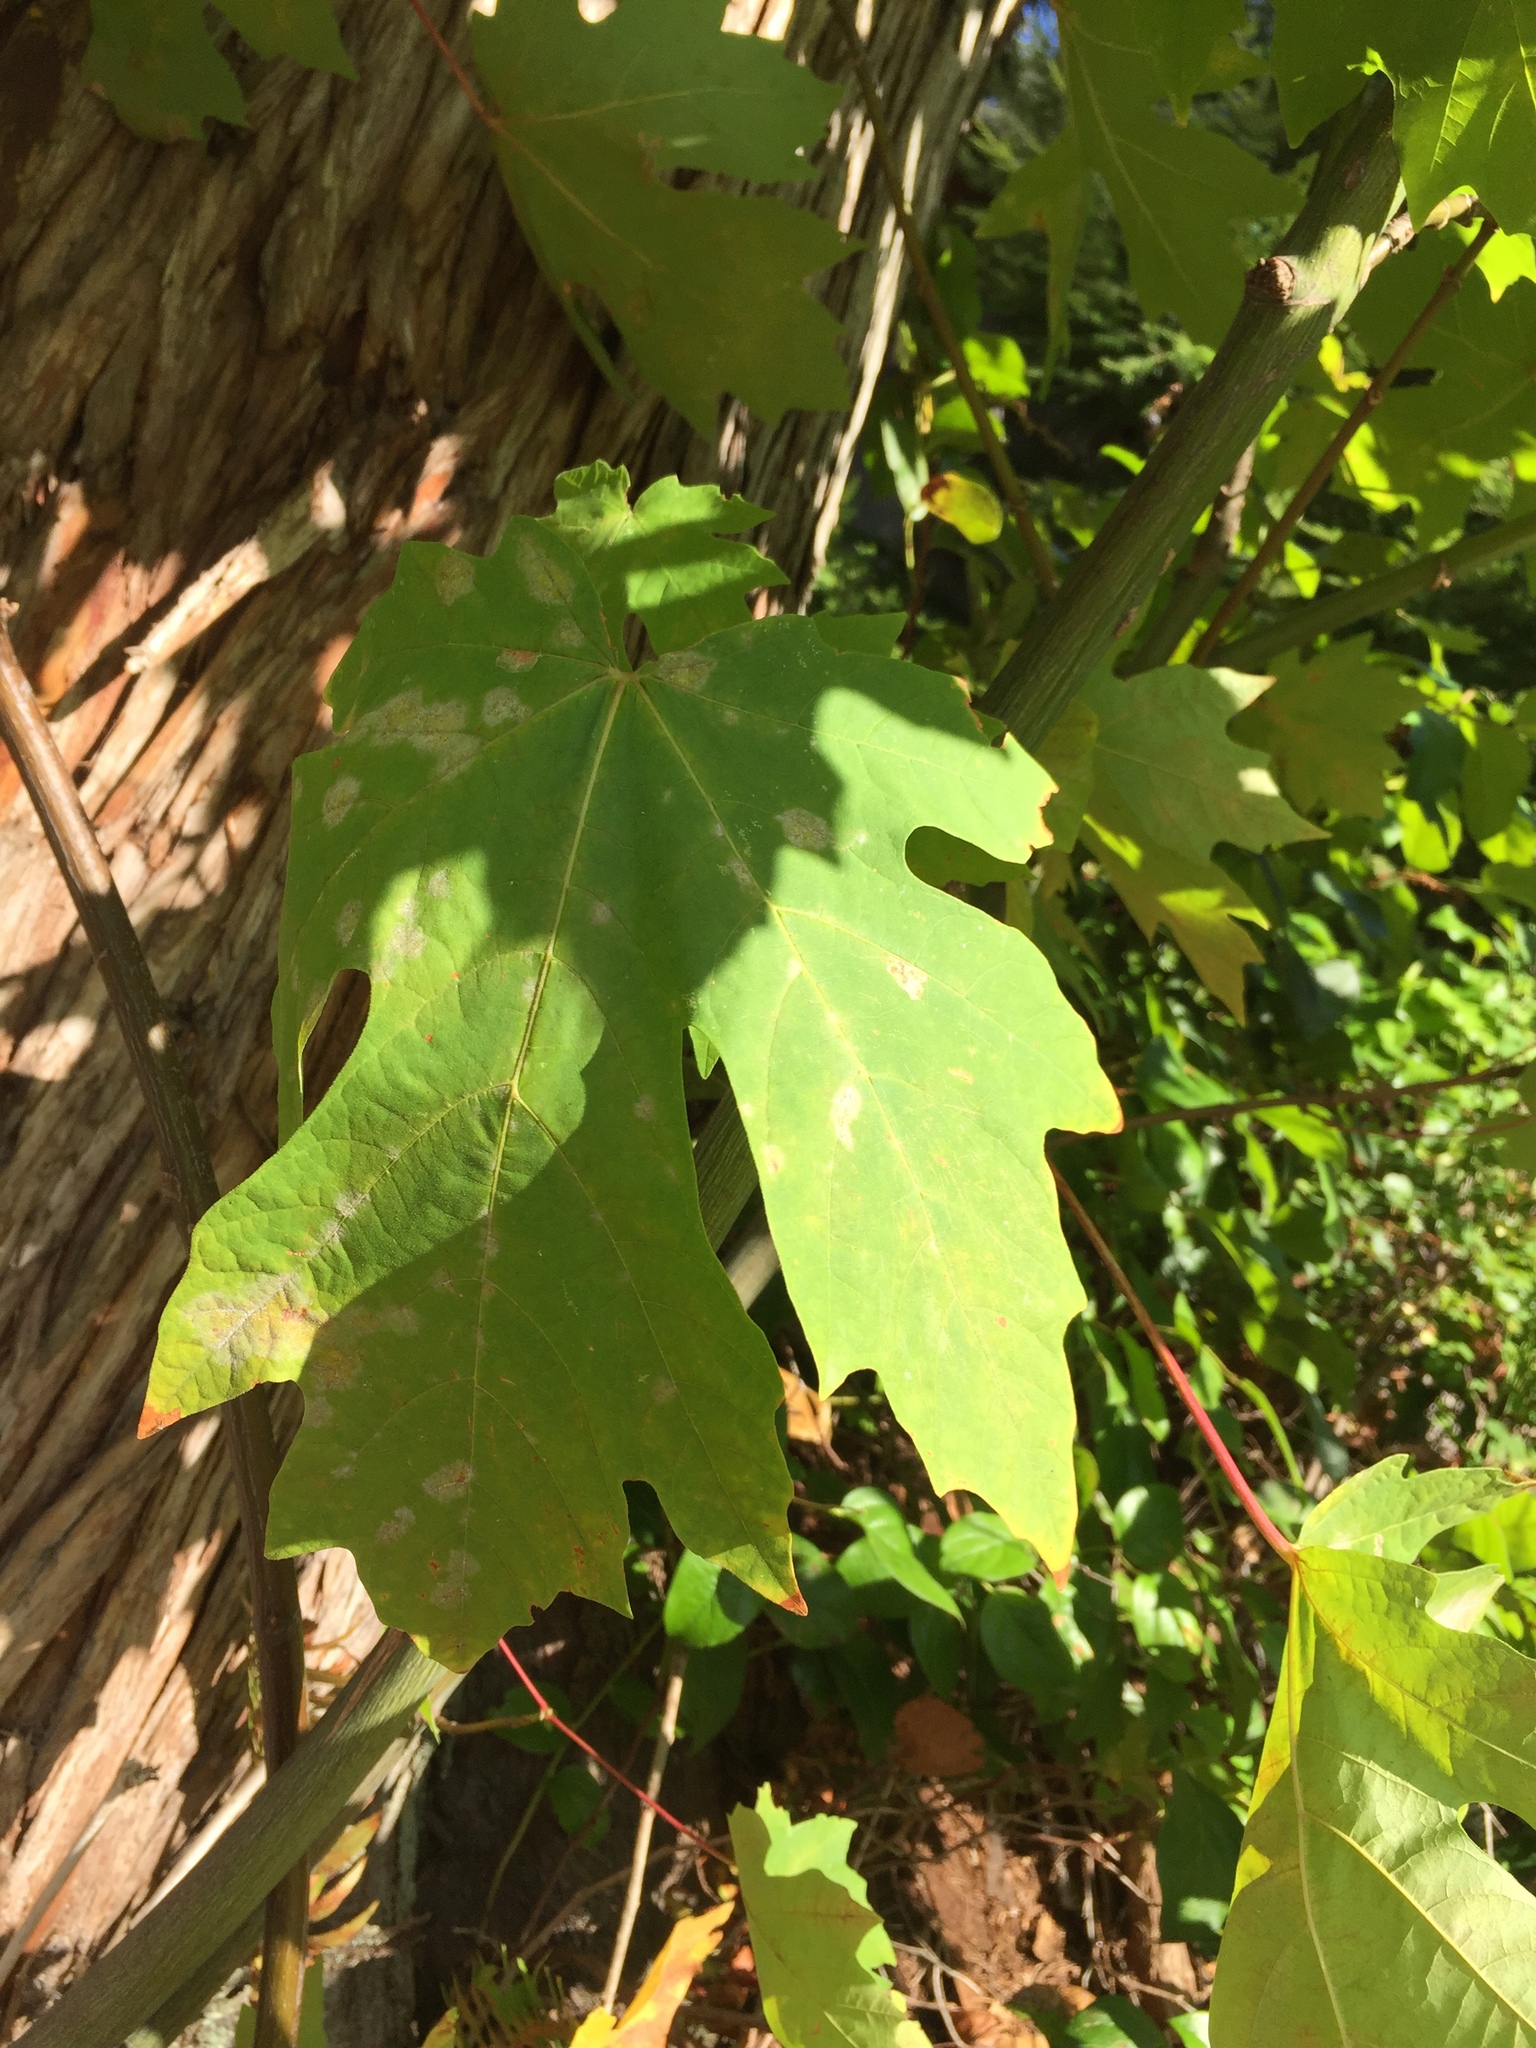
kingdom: Plantae
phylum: Tracheophyta
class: Magnoliopsida
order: Sapindales
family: Sapindaceae
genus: Acer
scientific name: Acer macrophyllum
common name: Oregon maple
